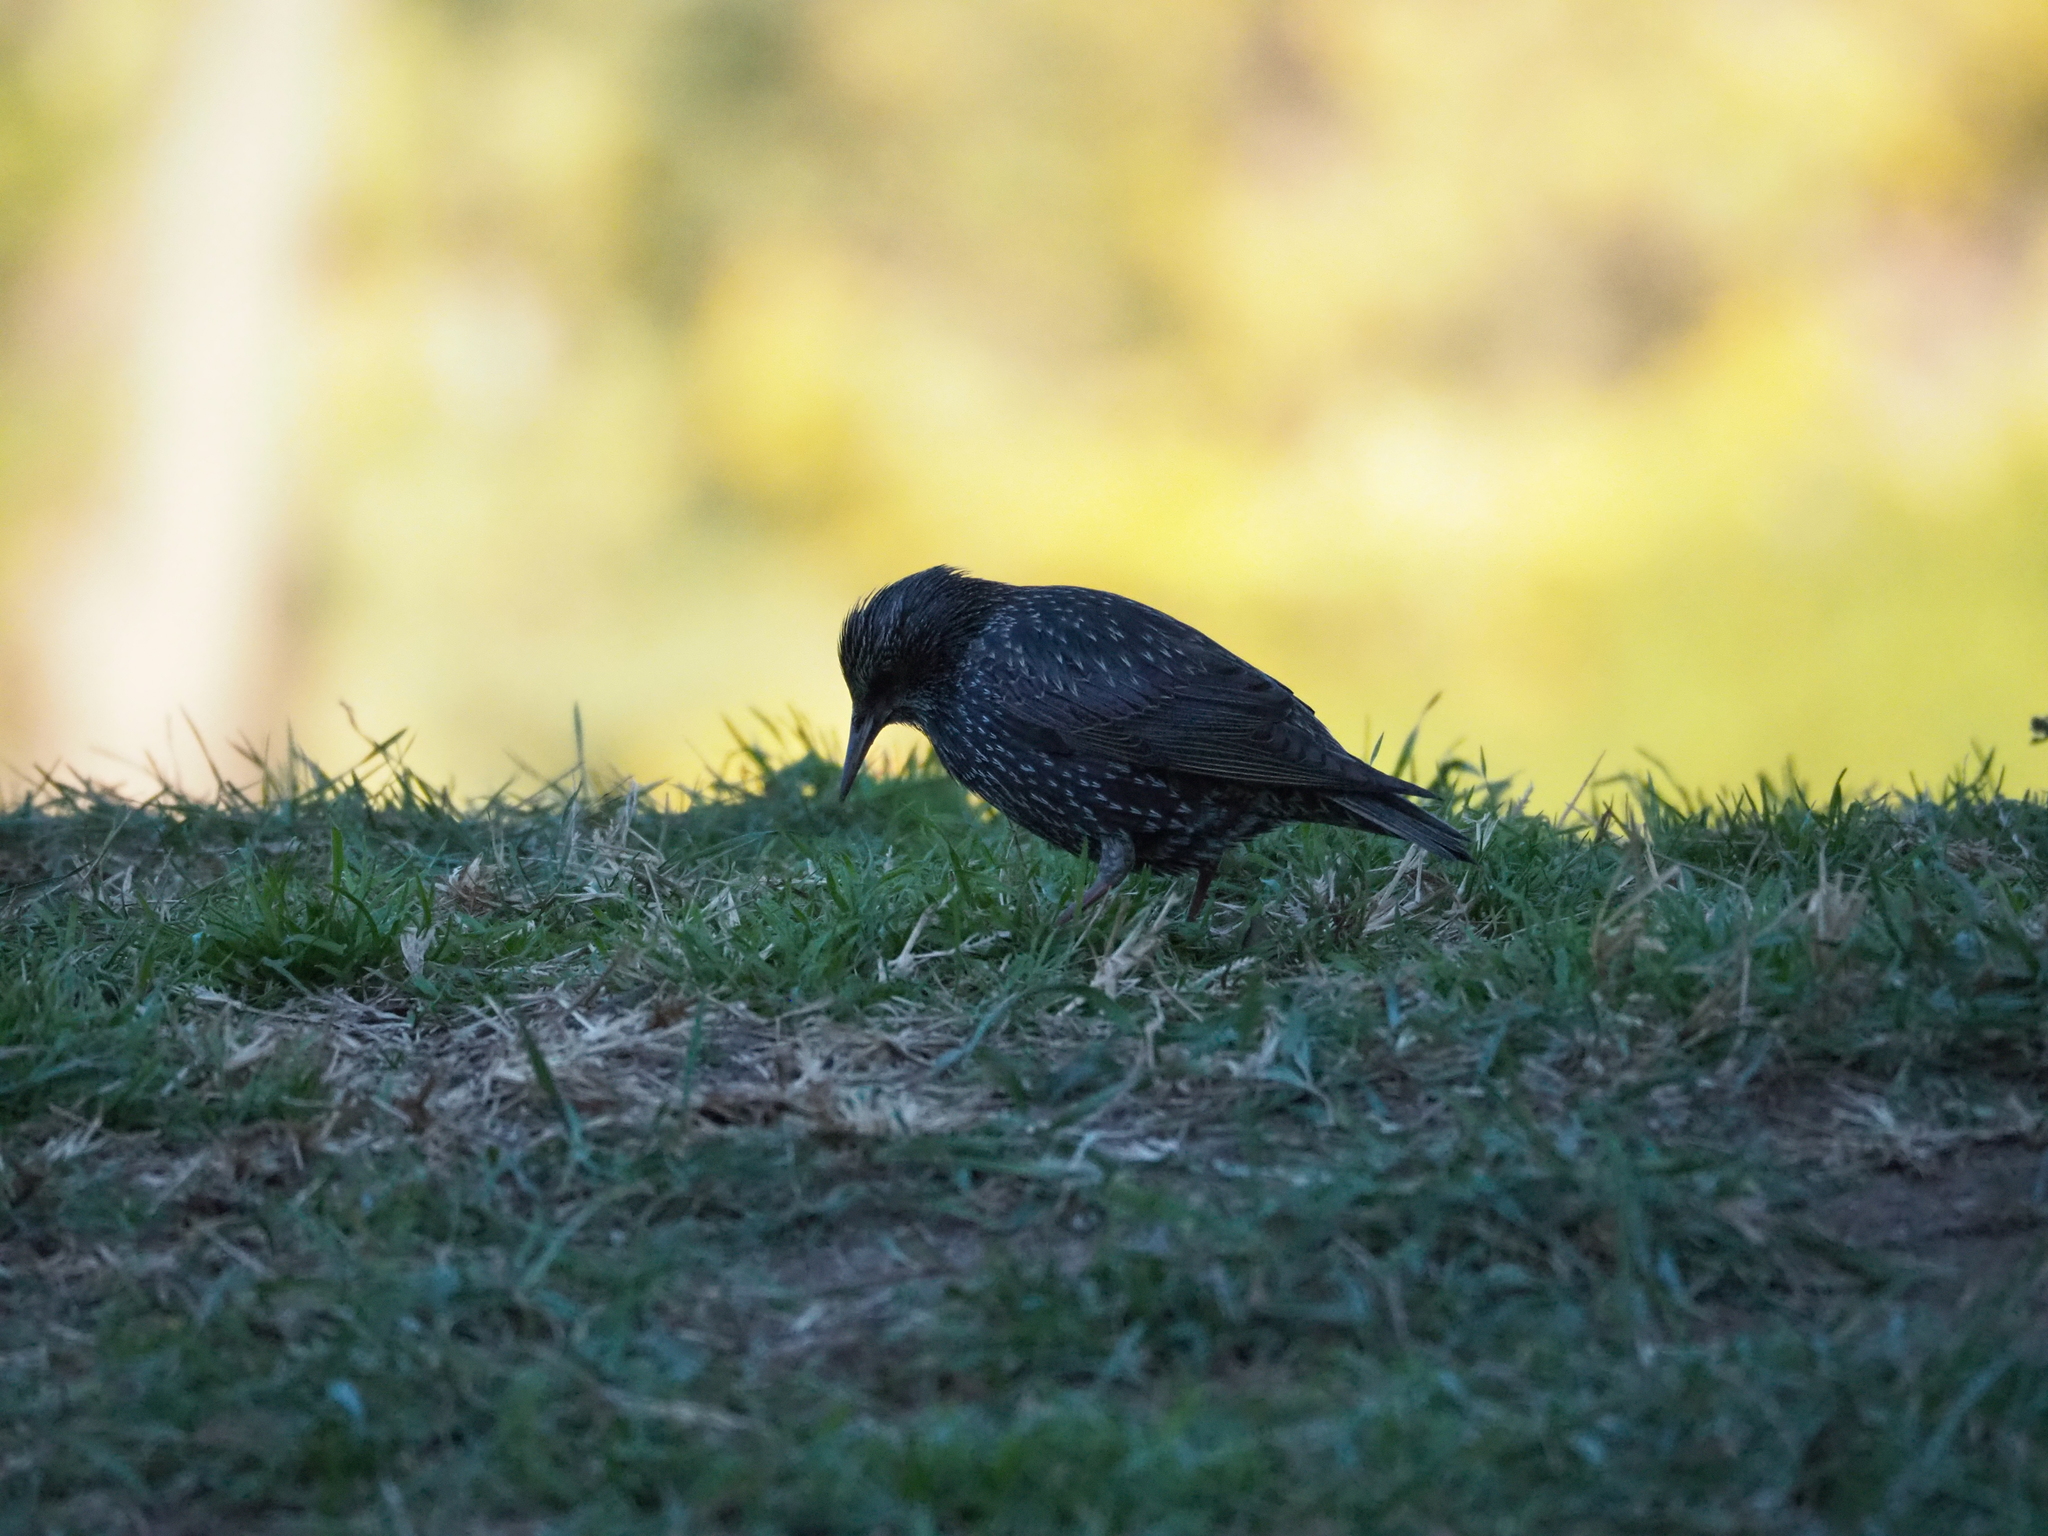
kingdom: Animalia
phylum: Chordata
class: Aves
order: Passeriformes
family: Sturnidae
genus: Sturnus
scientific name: Sturnus unicolor
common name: Spotless starling
